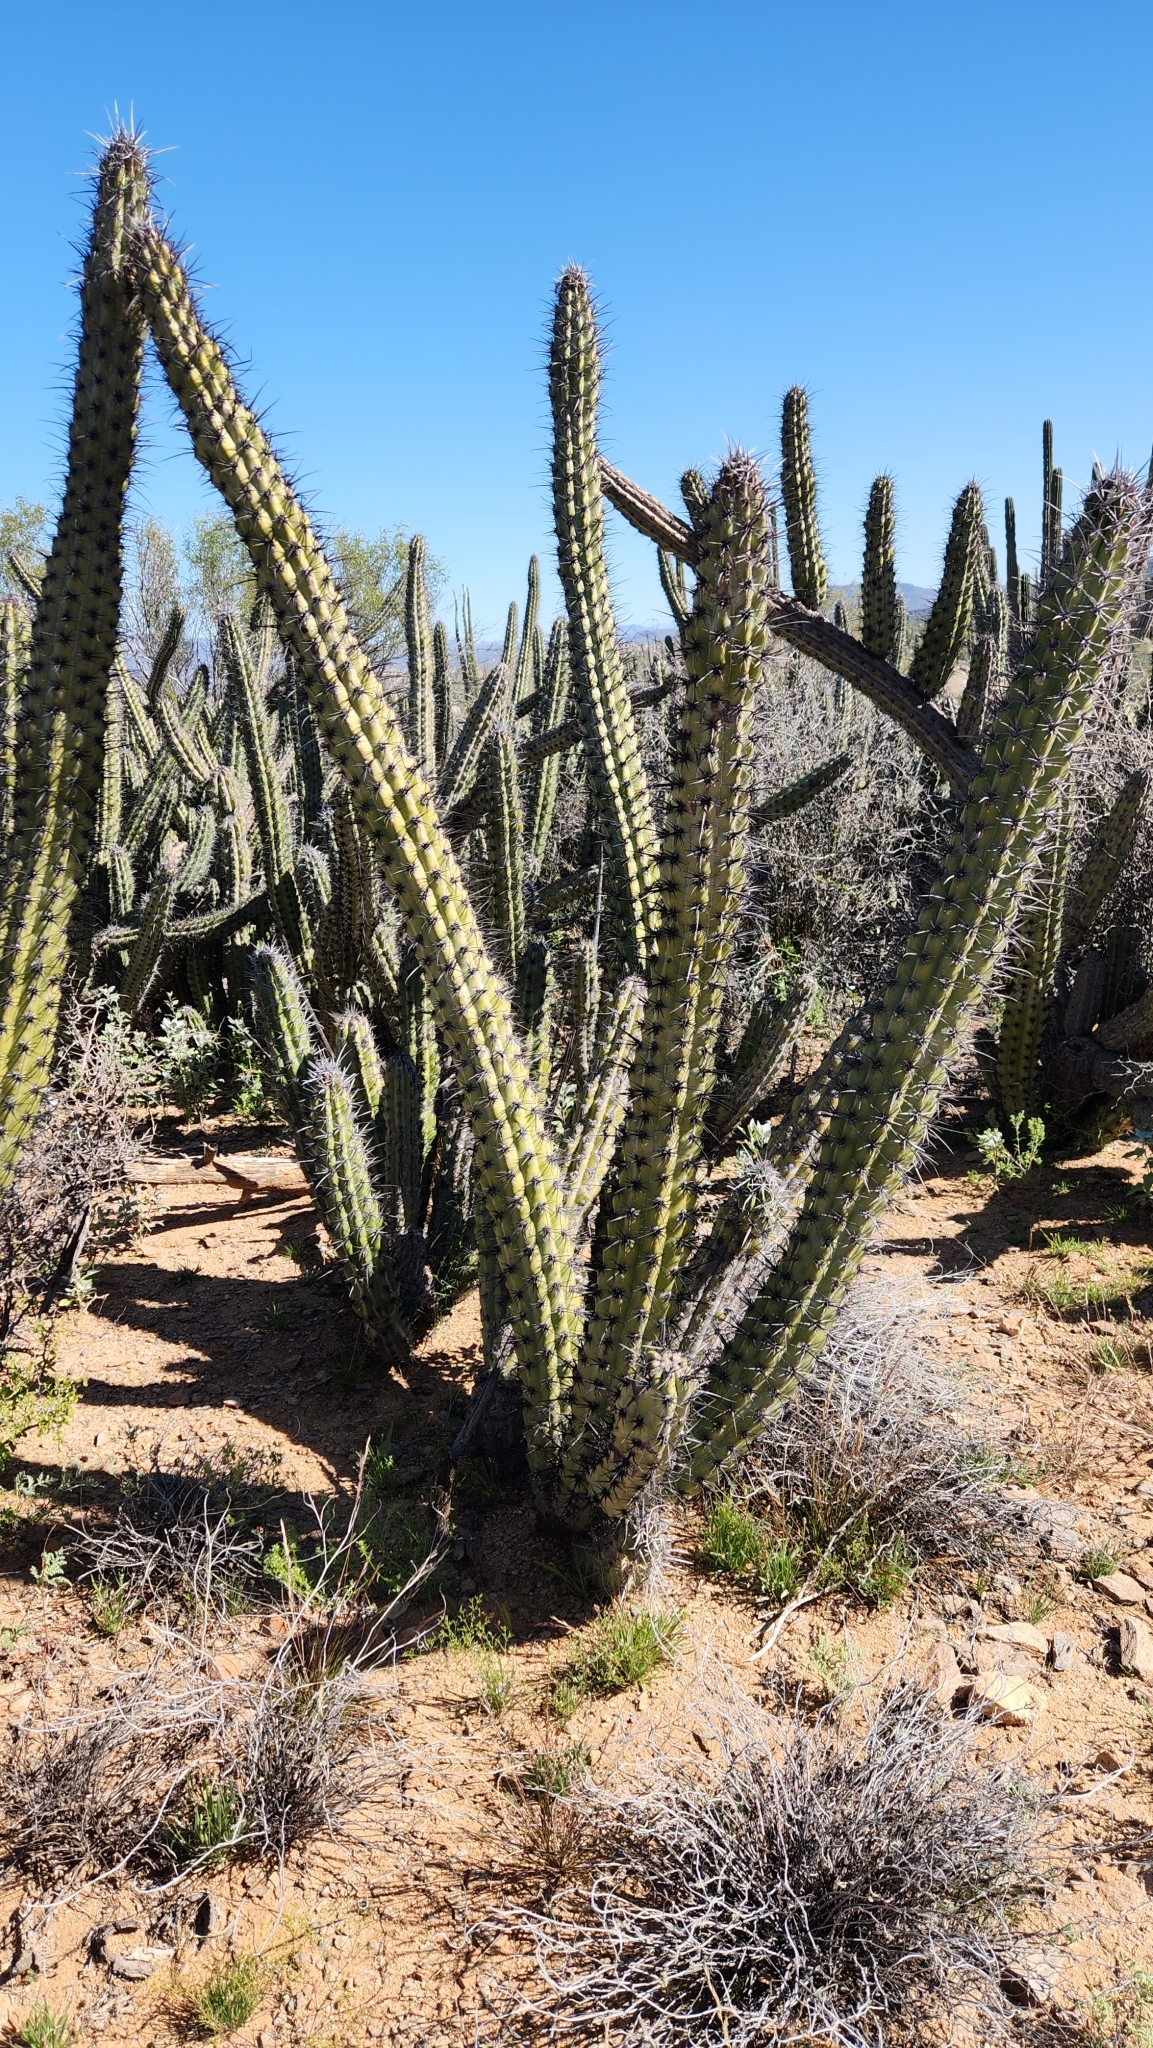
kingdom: Plantae
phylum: Tracheophyta
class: Magnoliopsida
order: Caryophyllales
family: Cactaceae
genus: Stenocereus
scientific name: Stenocereus gummosus
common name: Dagger cactus
